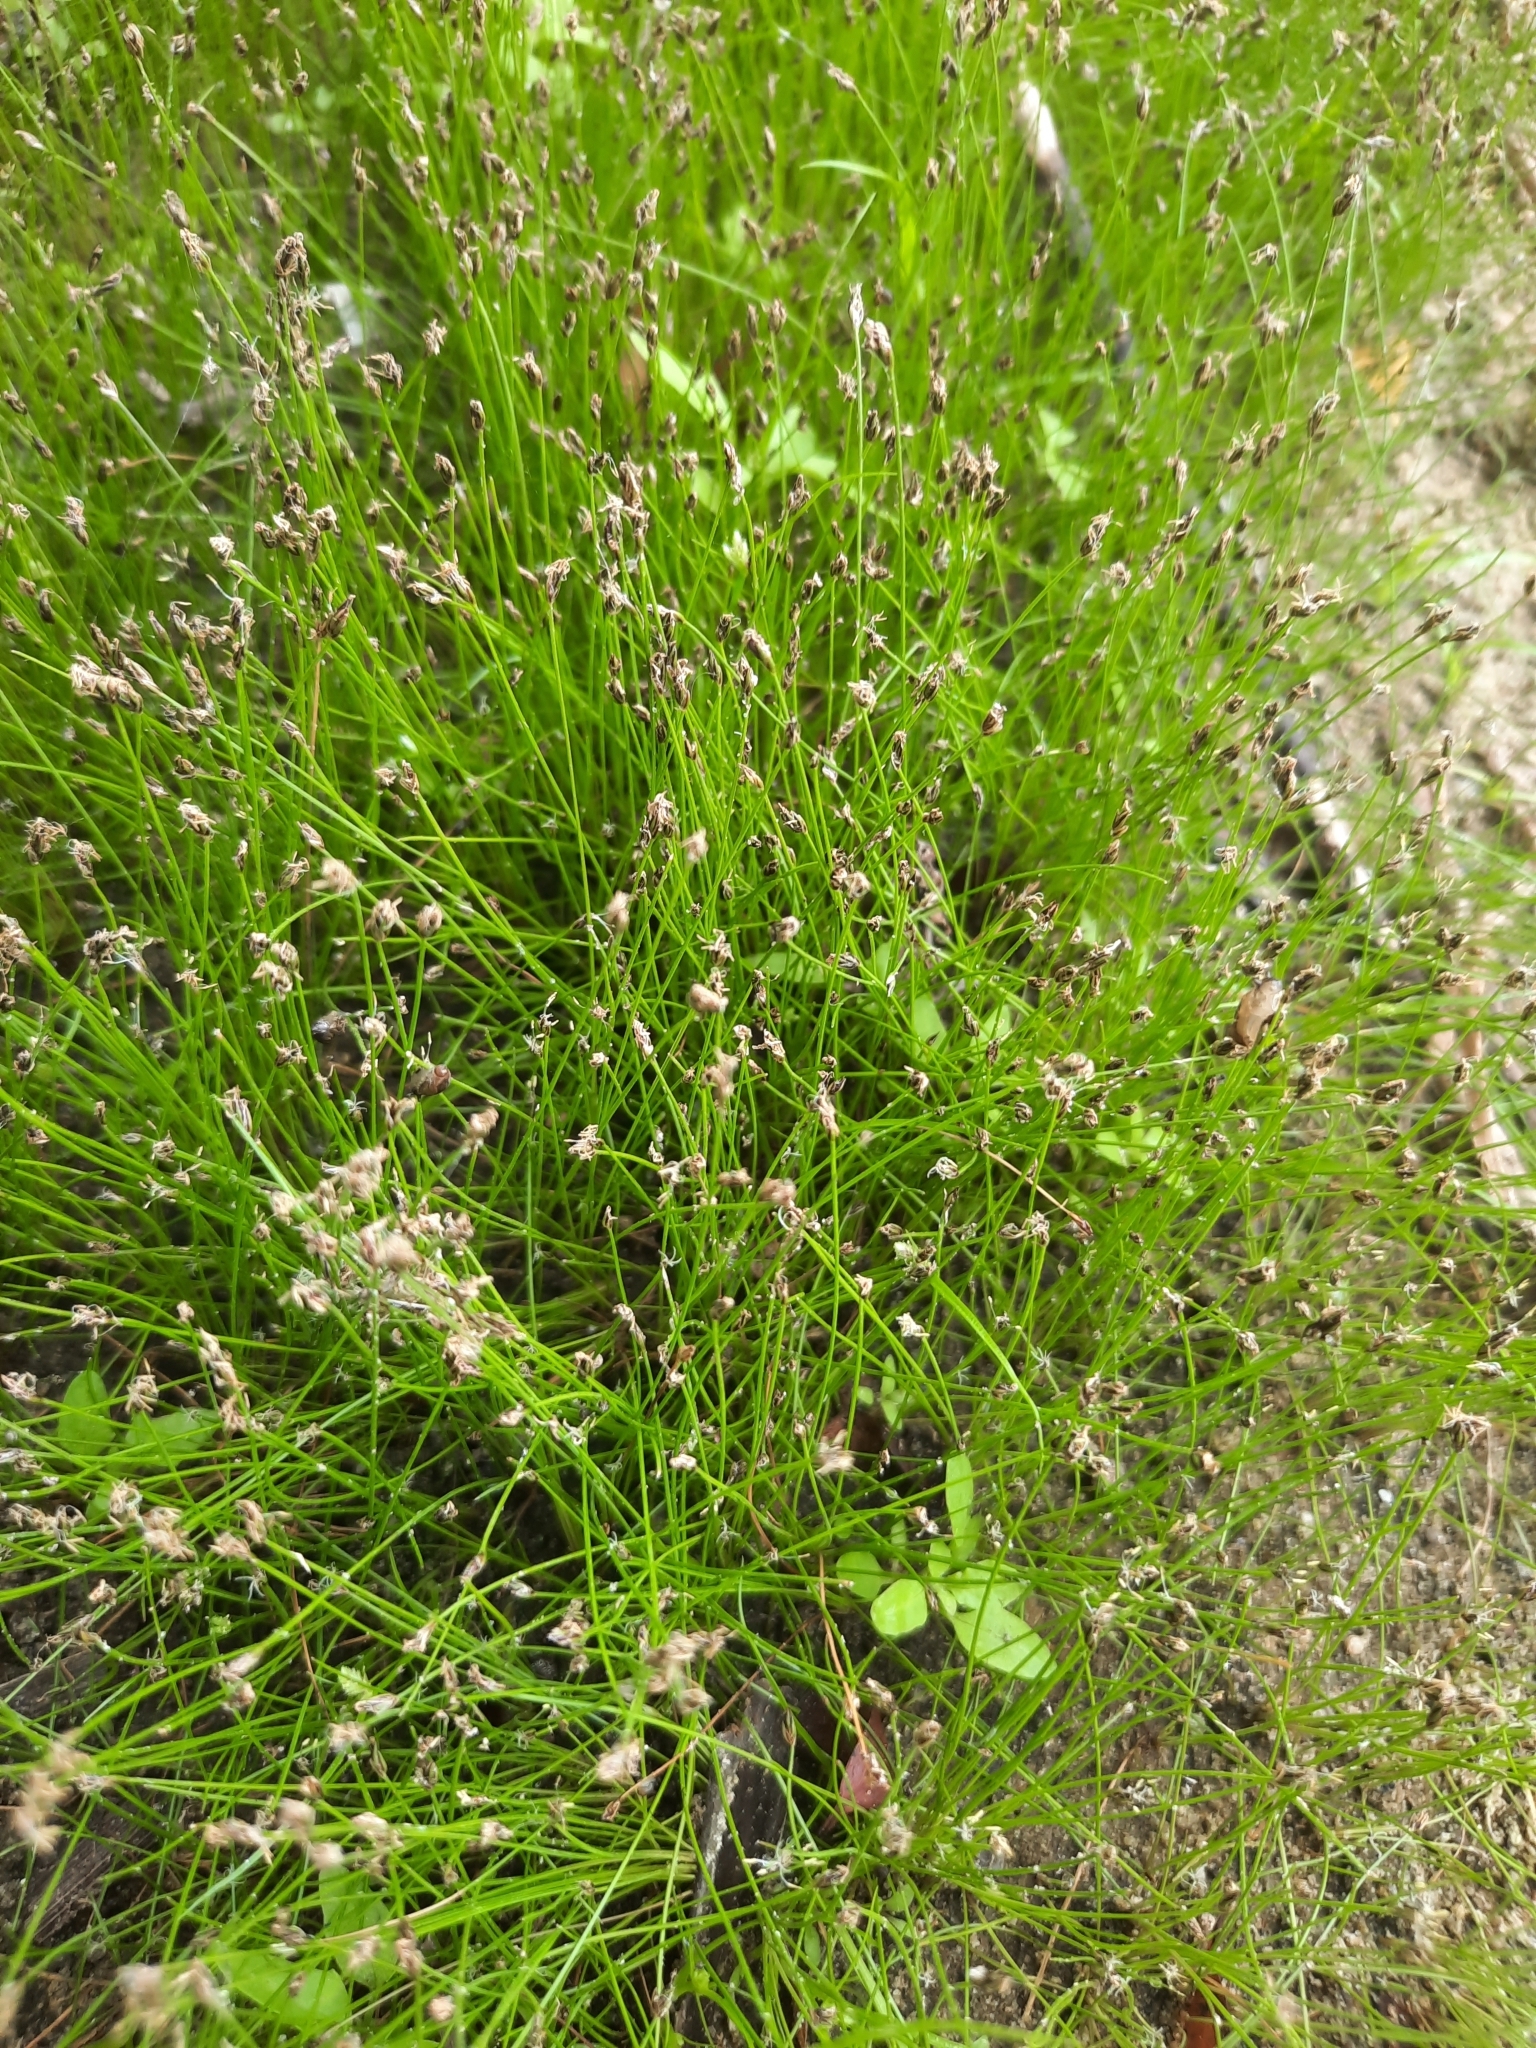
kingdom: Plantae
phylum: Tracheophyta
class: Liliopsida
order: Poales
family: Cyperaceae
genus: Eleocharis
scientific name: Eleocharis acicularis
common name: Needle spike-rush
